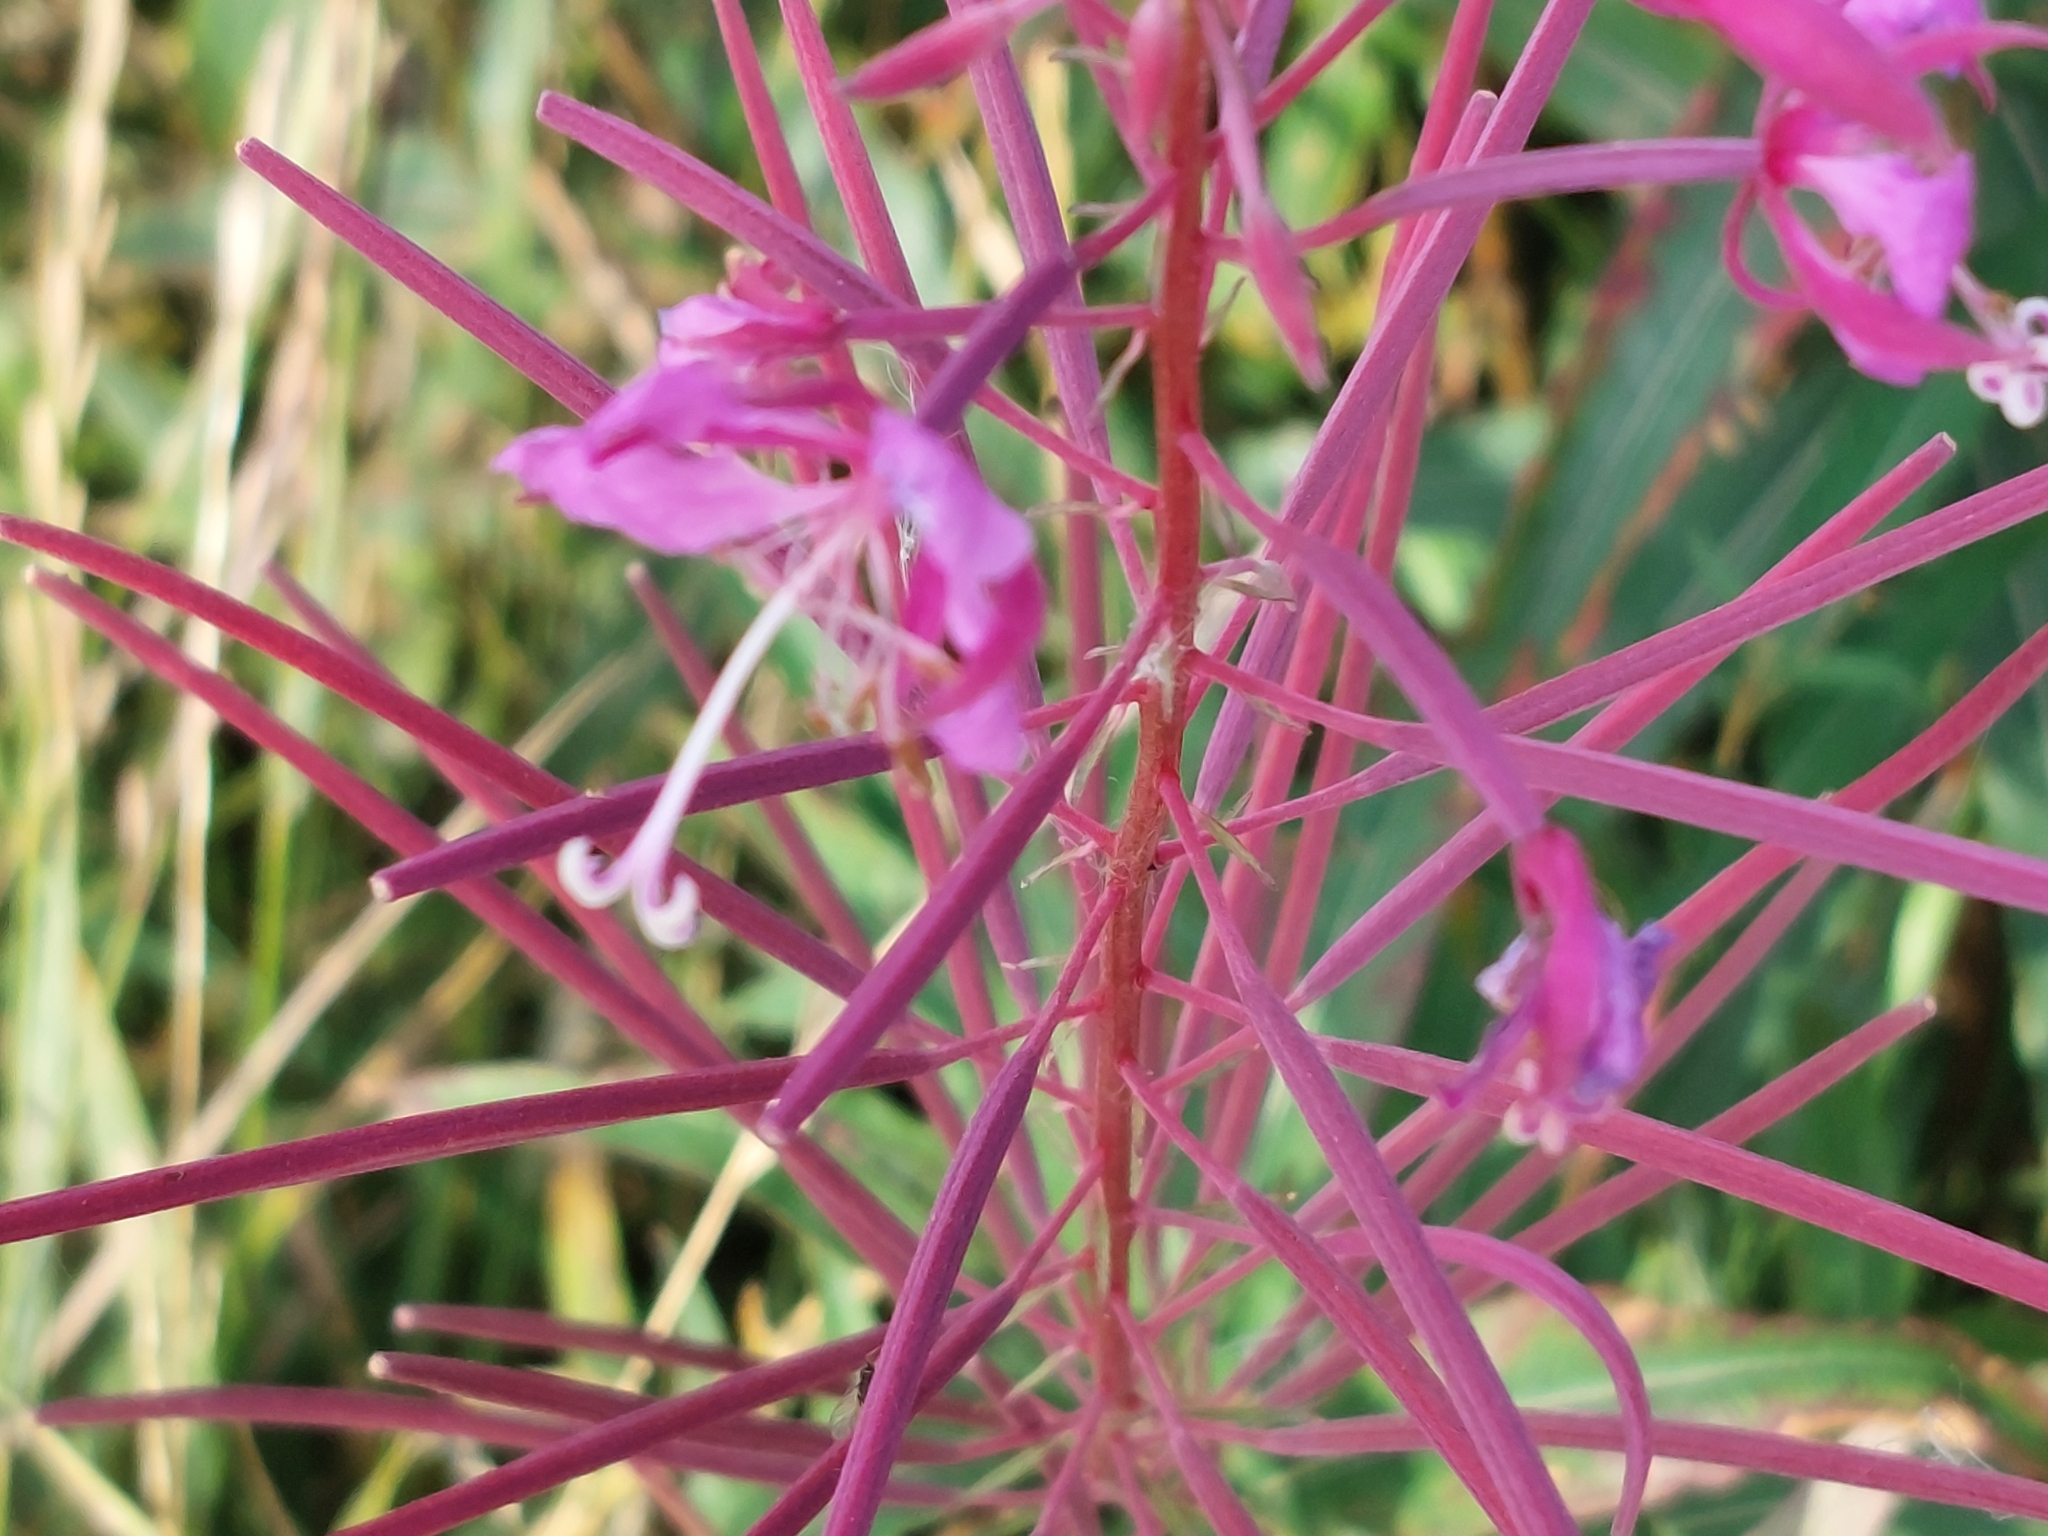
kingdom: Plantae
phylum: Tracheophyta
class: Magnoliopsida
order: Myrtales
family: Onagraceae
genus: Chamaenerion
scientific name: Chamaenerion angustifolium
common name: Fireweed
